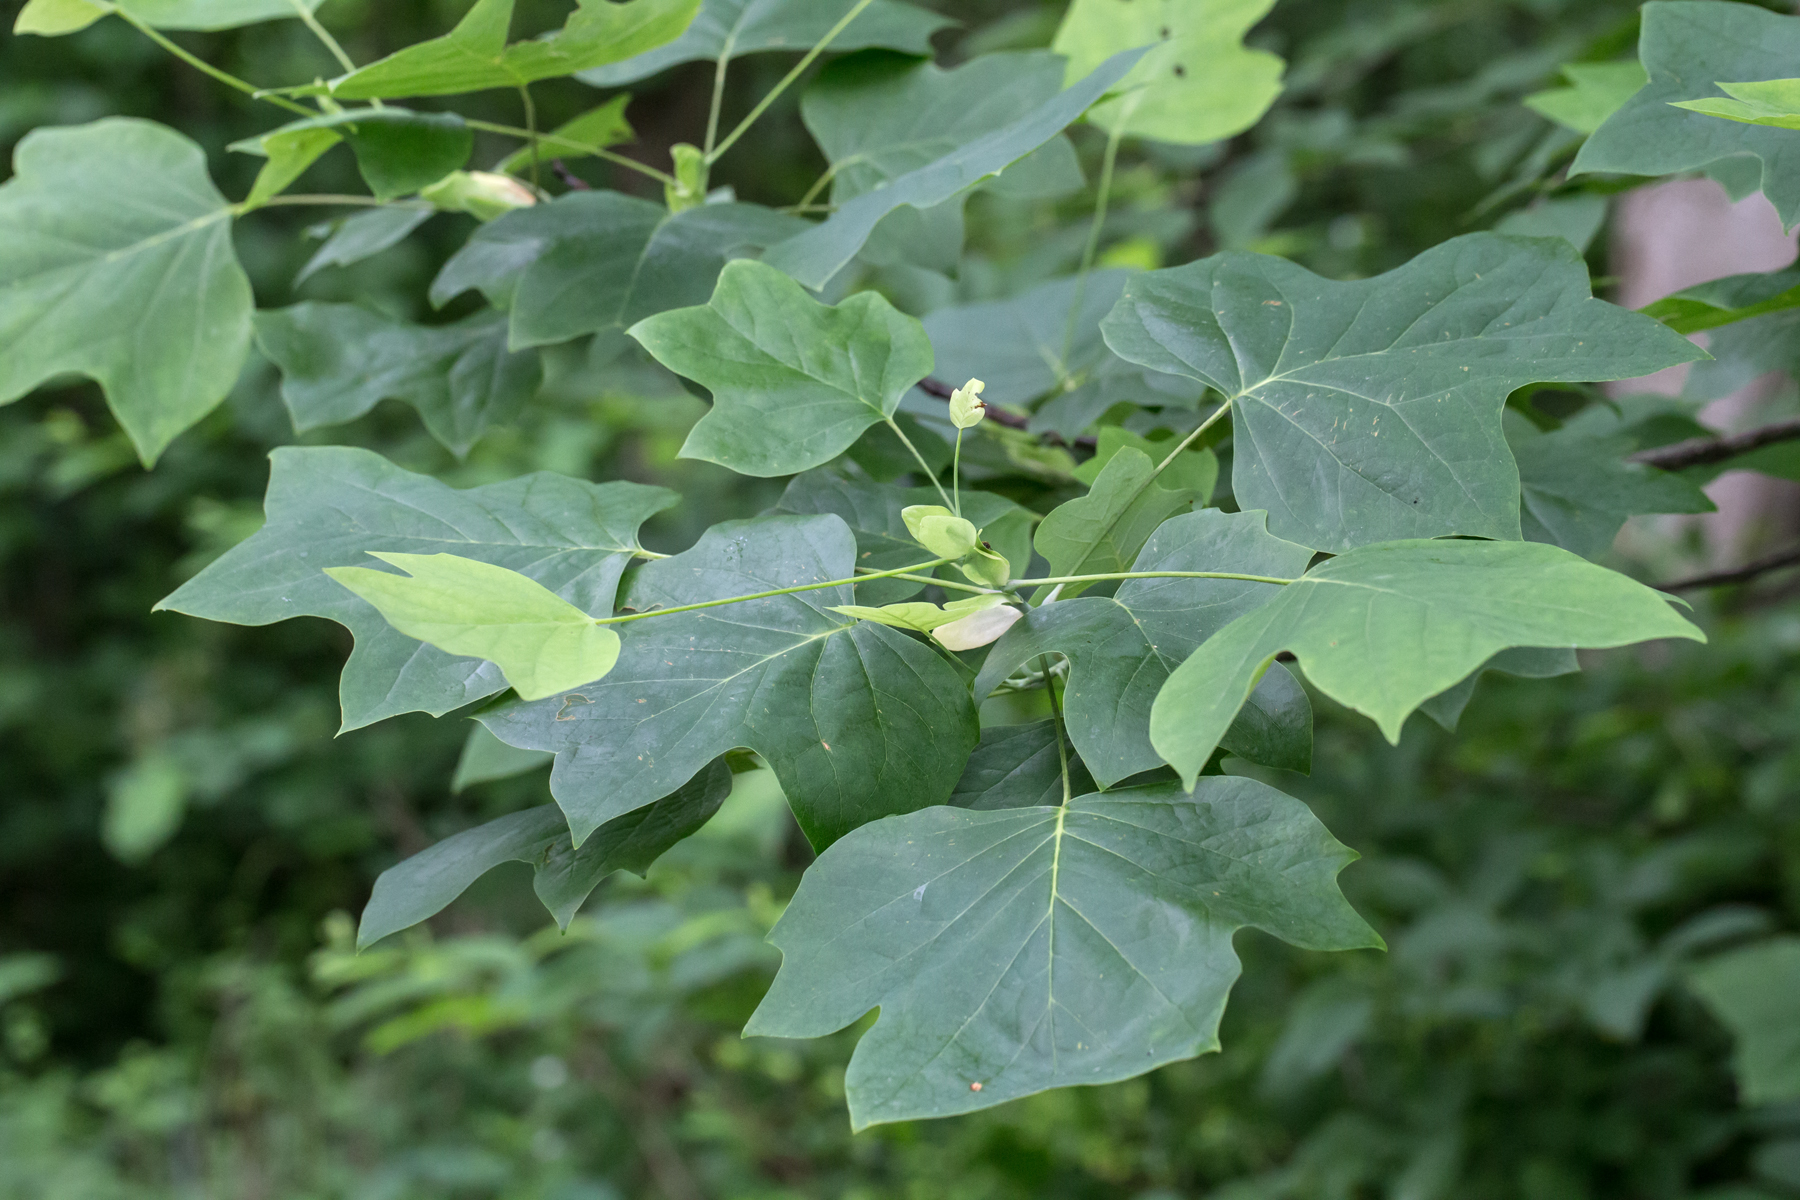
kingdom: Plantae
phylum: Tracheophyta
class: Magnoliopsida
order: Magnoliales
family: Magnoliaceae
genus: Liriodendron
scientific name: Liriodendron tulipifera
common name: Tulip tree
